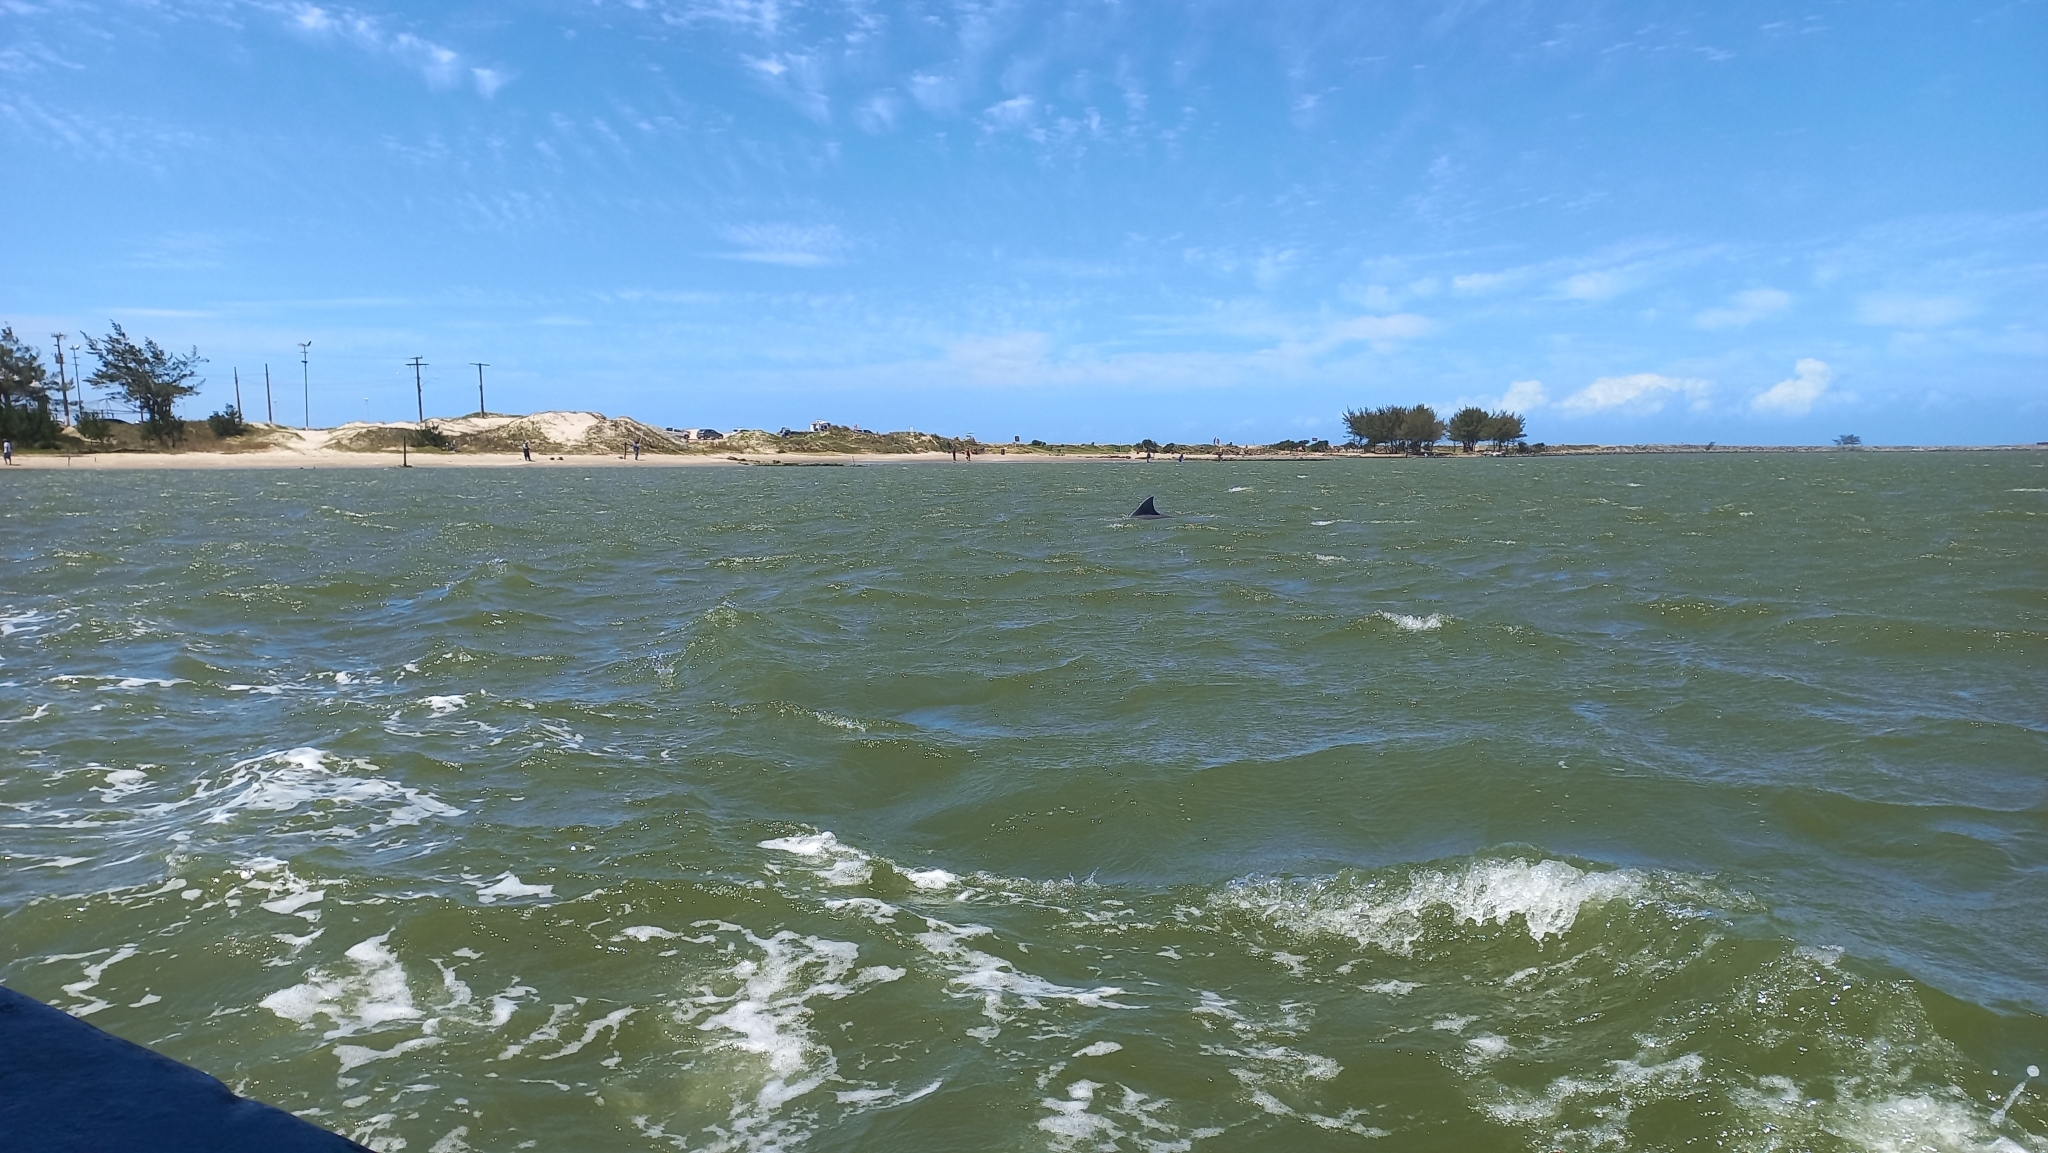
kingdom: Animalia
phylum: Chordata
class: Mammalia
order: Cetacea
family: Delphinidae
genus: Tursiops
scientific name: Tursiops truncatus
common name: Bottlenose dolphin
